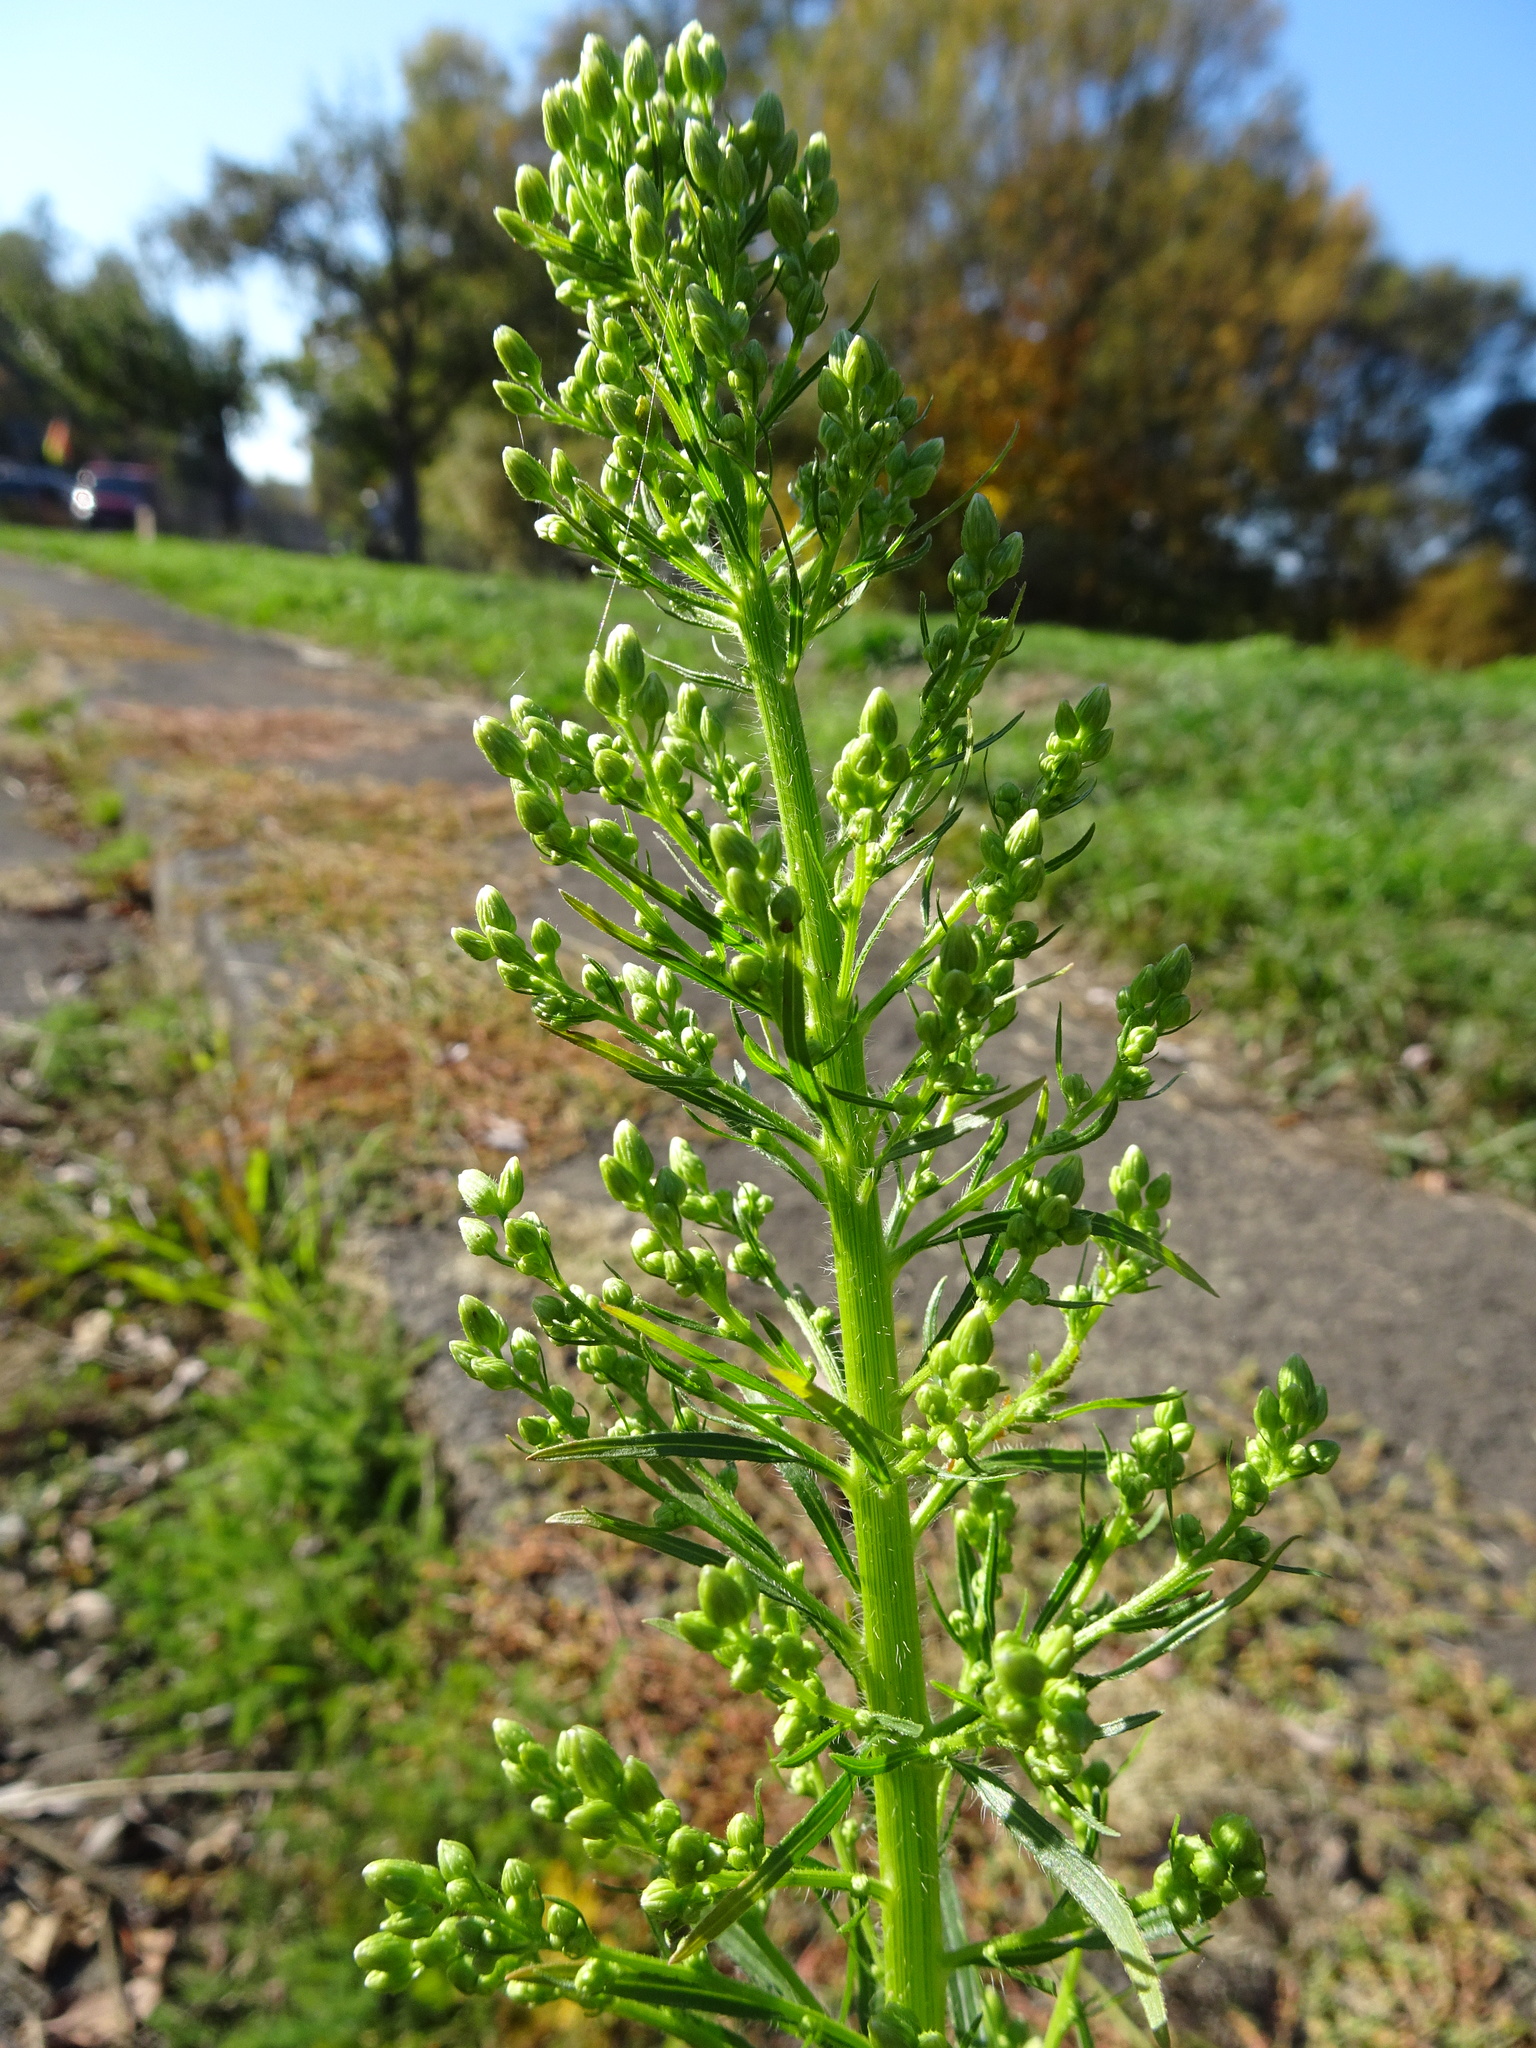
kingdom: Plantae
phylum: Tracheophyta
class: Magnoliopsida
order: Asterales
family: Asteraceae
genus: Erigeron
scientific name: Erigeron canadensis
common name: Canadian fleabane
